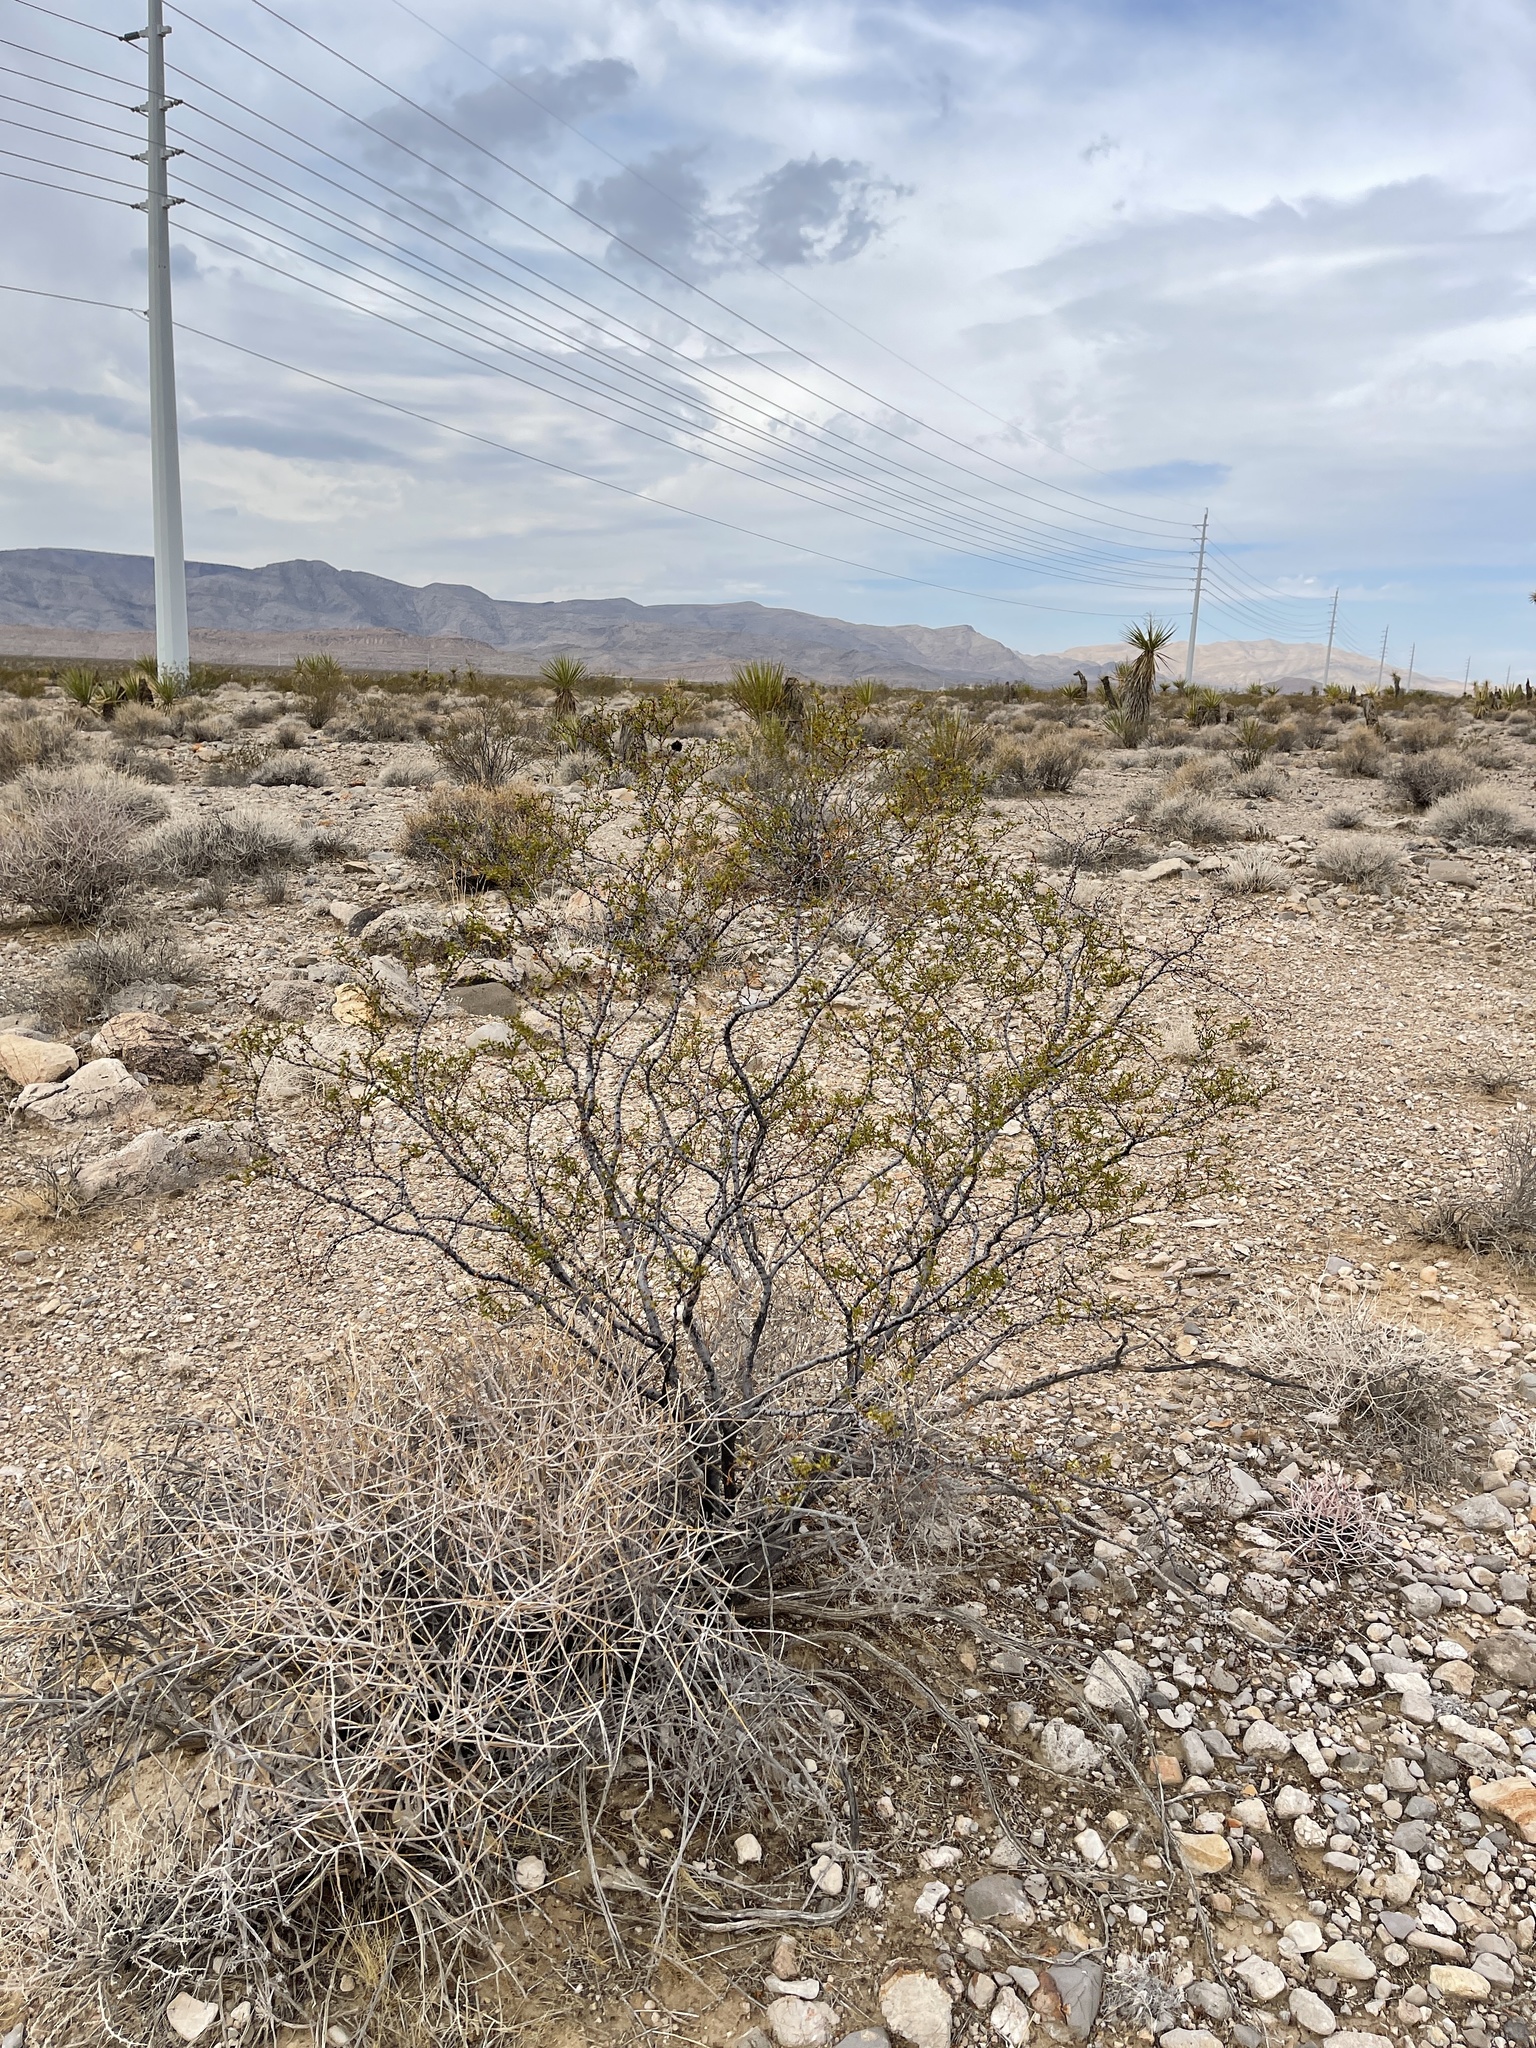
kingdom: Plantae
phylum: Tracheophyta
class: Magnoliopsida
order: Zygophyllales
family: Zygophyllaceae
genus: Larrea
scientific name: Larrea tridentata
